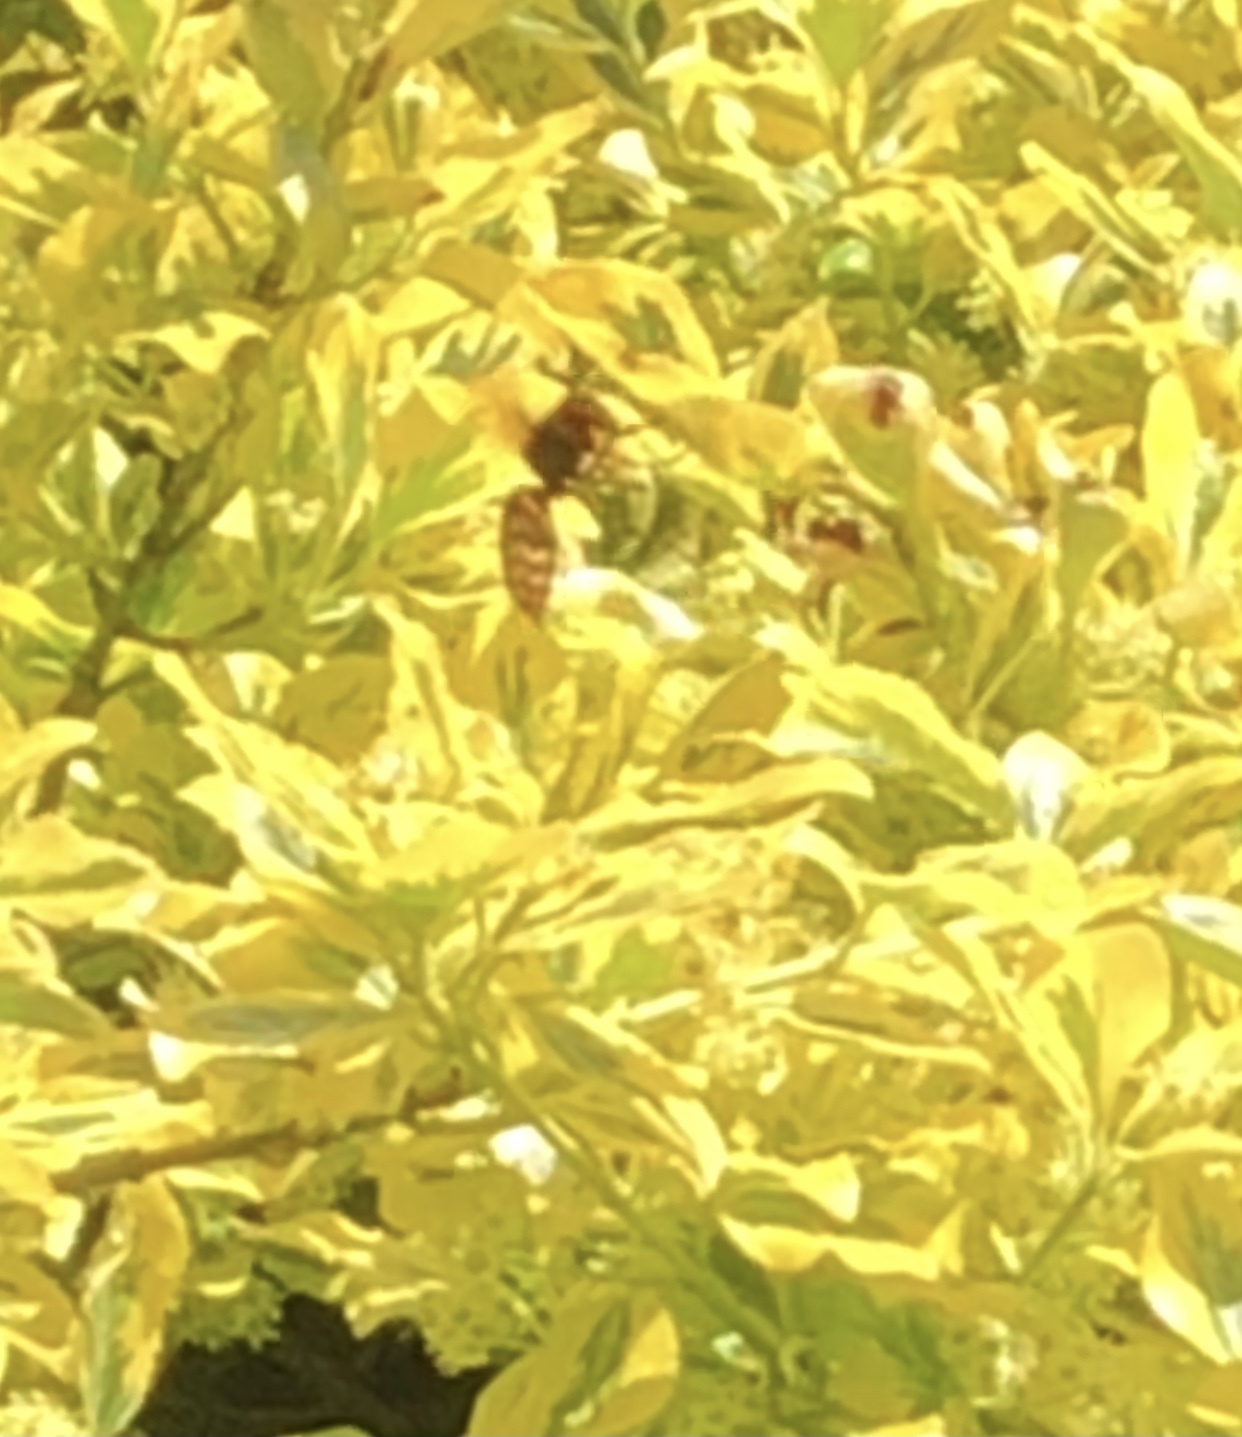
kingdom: Animalia
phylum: Arthropoda
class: Insecta
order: Hymenoptera
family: Vespidae
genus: Vespa
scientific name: Vespa crabro
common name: Hornet
